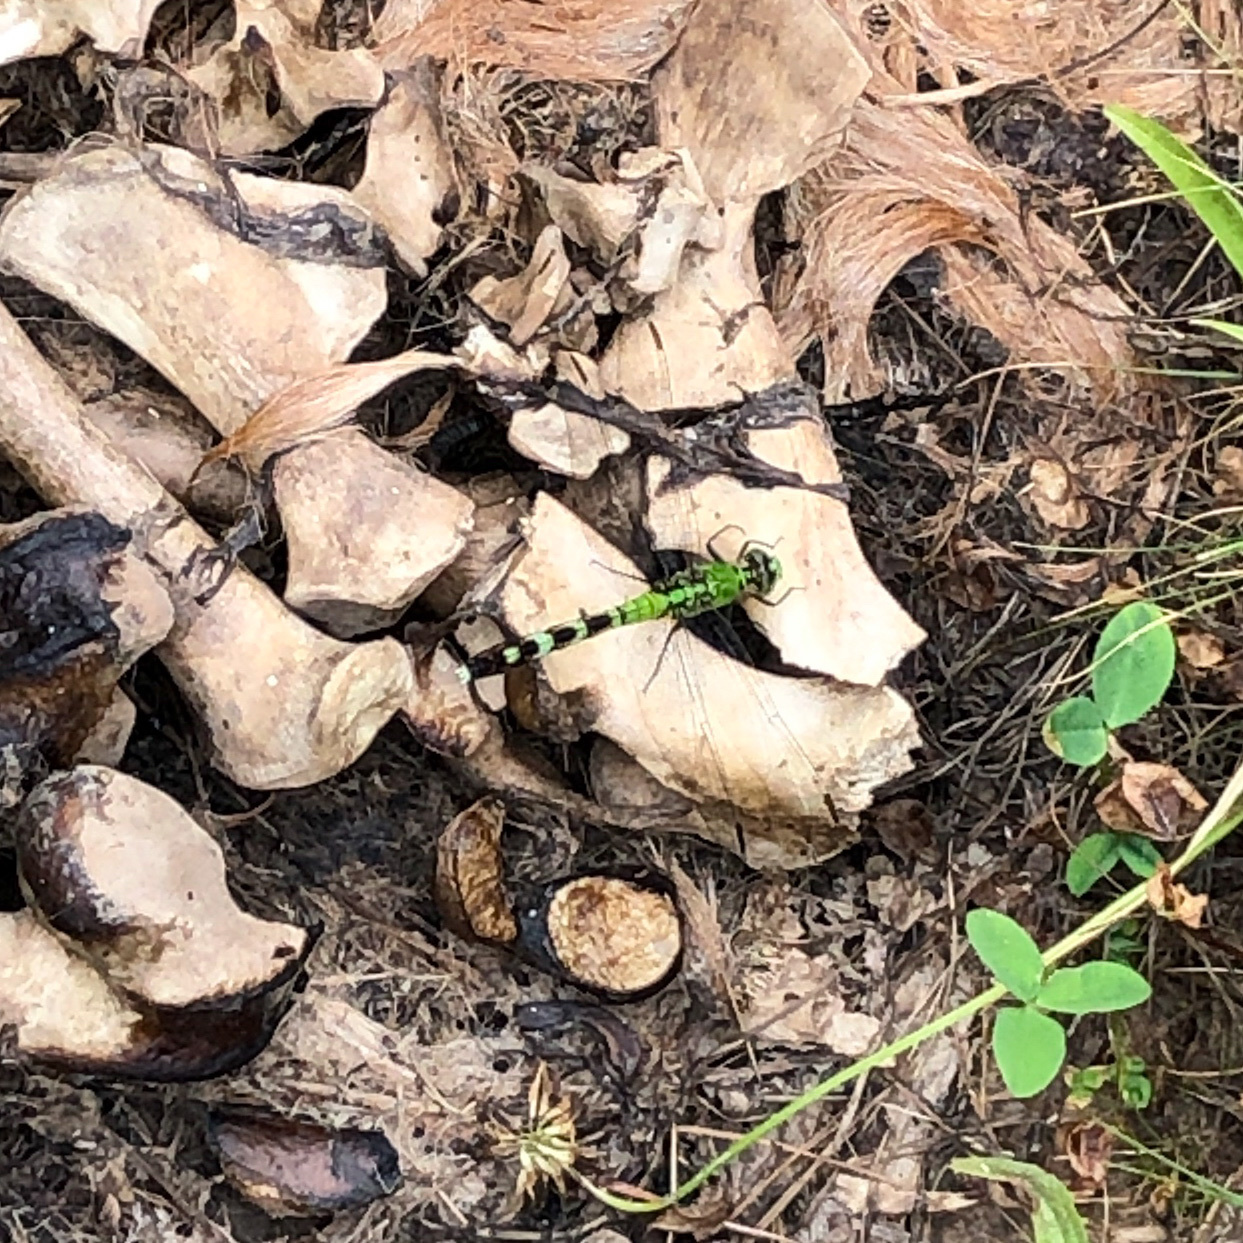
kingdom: Animalia
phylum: Arthropoda
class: Insecta
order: Odonata
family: Libellulidae
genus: Erythemis
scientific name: Erythemis simplicicollis
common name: Eastern pondhawk
